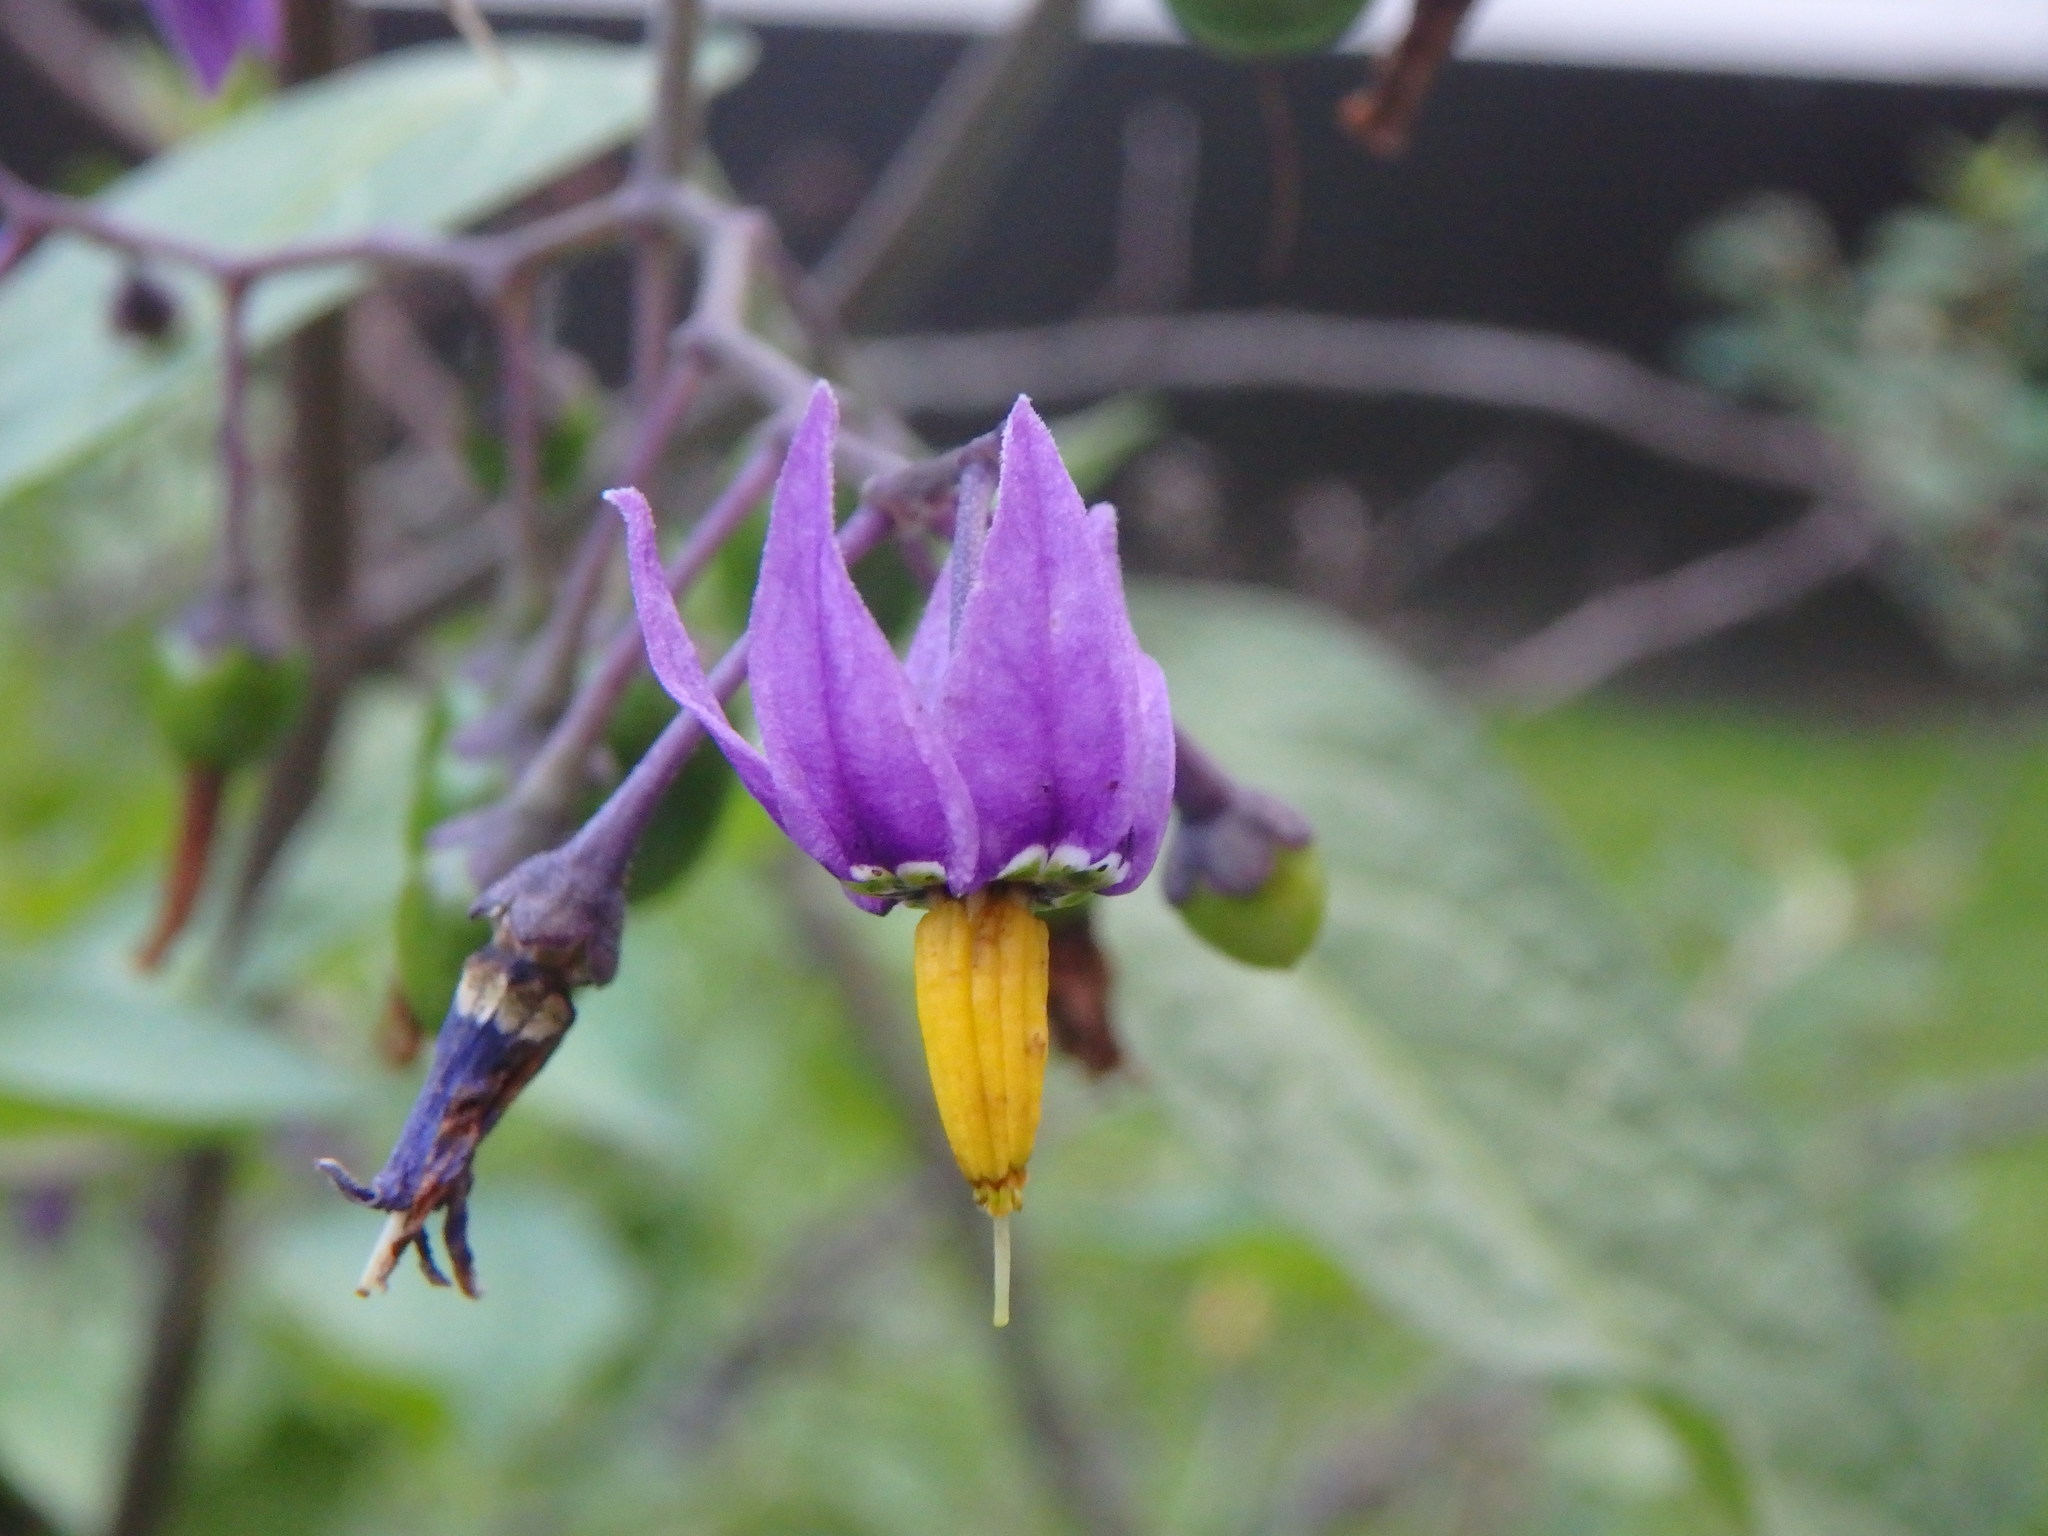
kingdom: Plantae
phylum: Tracheophyta
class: Magnoliopsida
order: Solanales
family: Solanaceae
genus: Solanum
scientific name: Solanum dulcamara
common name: Climbing nightshade
